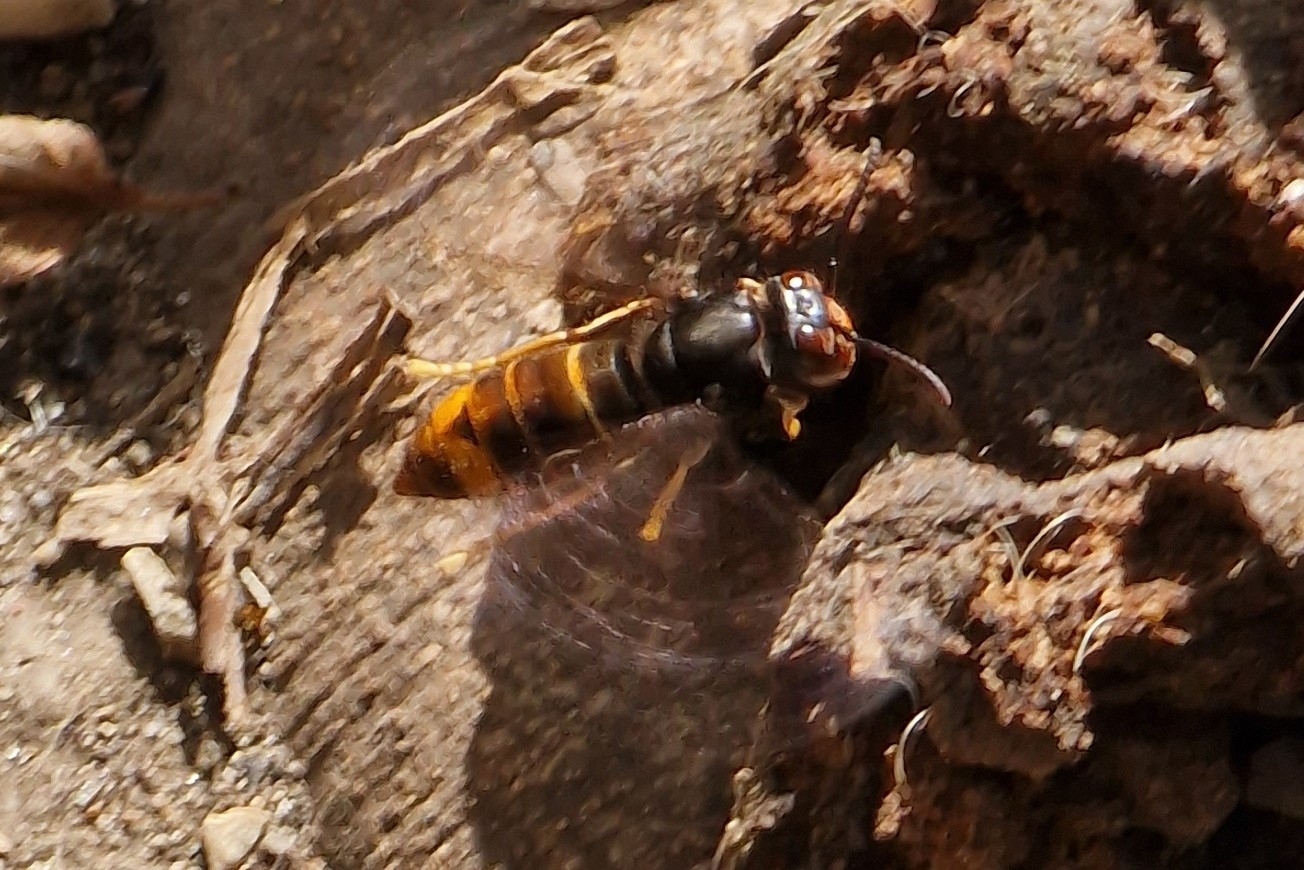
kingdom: Animalia
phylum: Arthropoda
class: Insecta
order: Hymenoptera
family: Vespidae
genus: Vespa
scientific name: Vespa velutina
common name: Asian hornet
